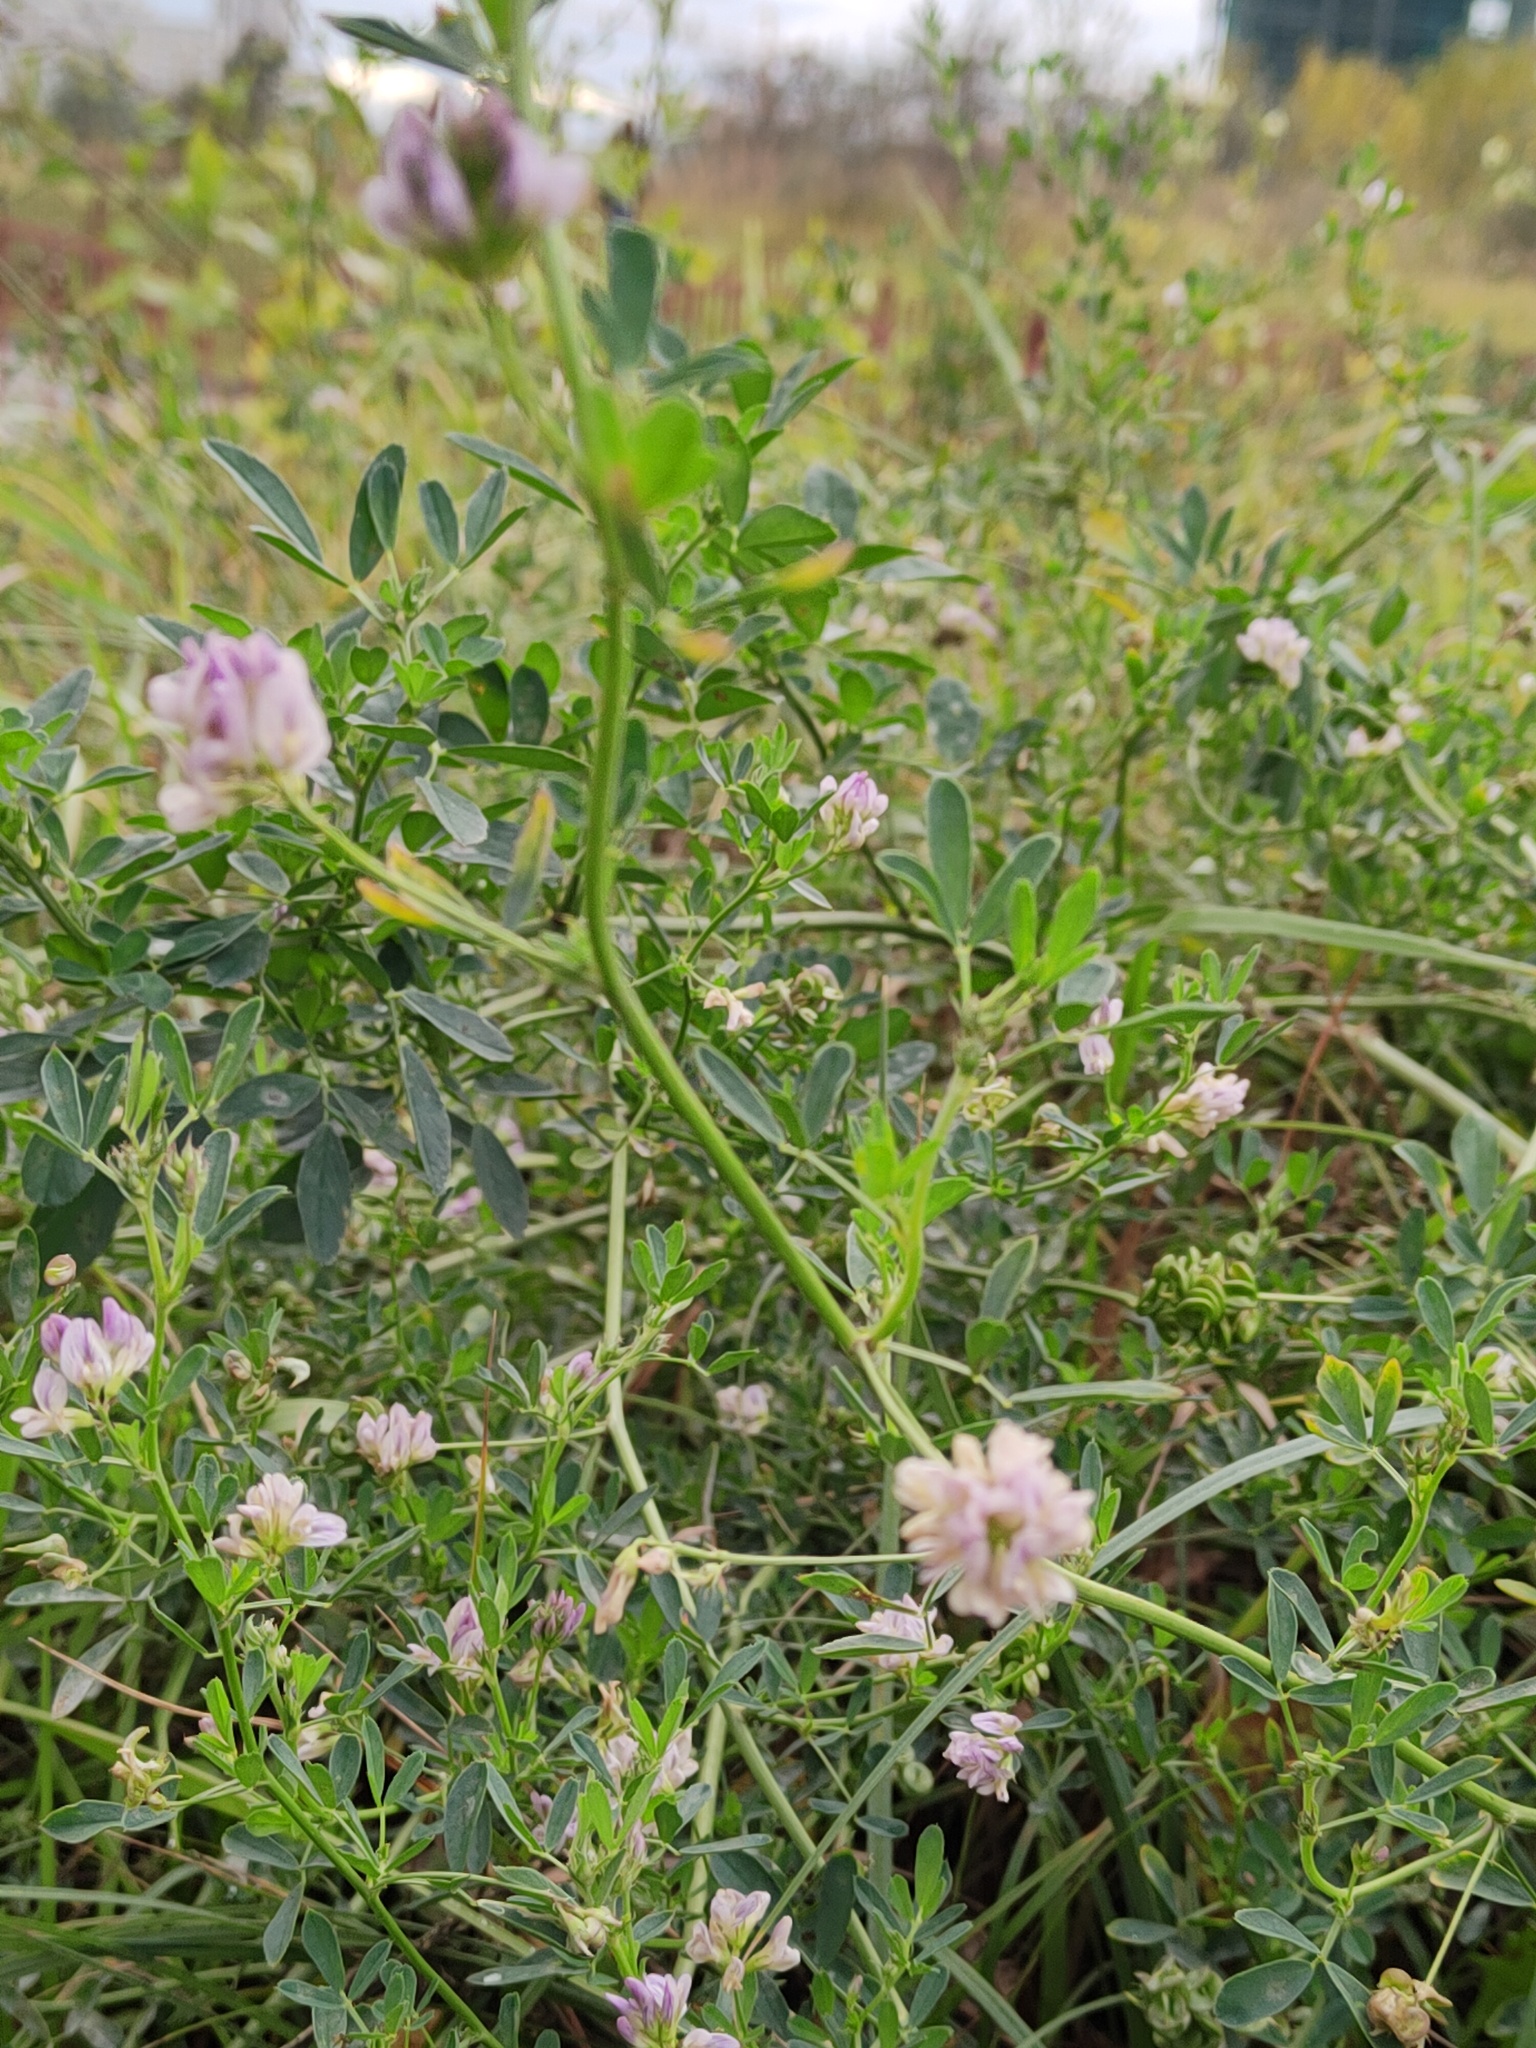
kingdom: Plantae
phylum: Tracheophyta
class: Magnoliopsida
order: Fabales
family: Fabaceae
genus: Medicago
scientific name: Medicago varia
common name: Sand lucerne
